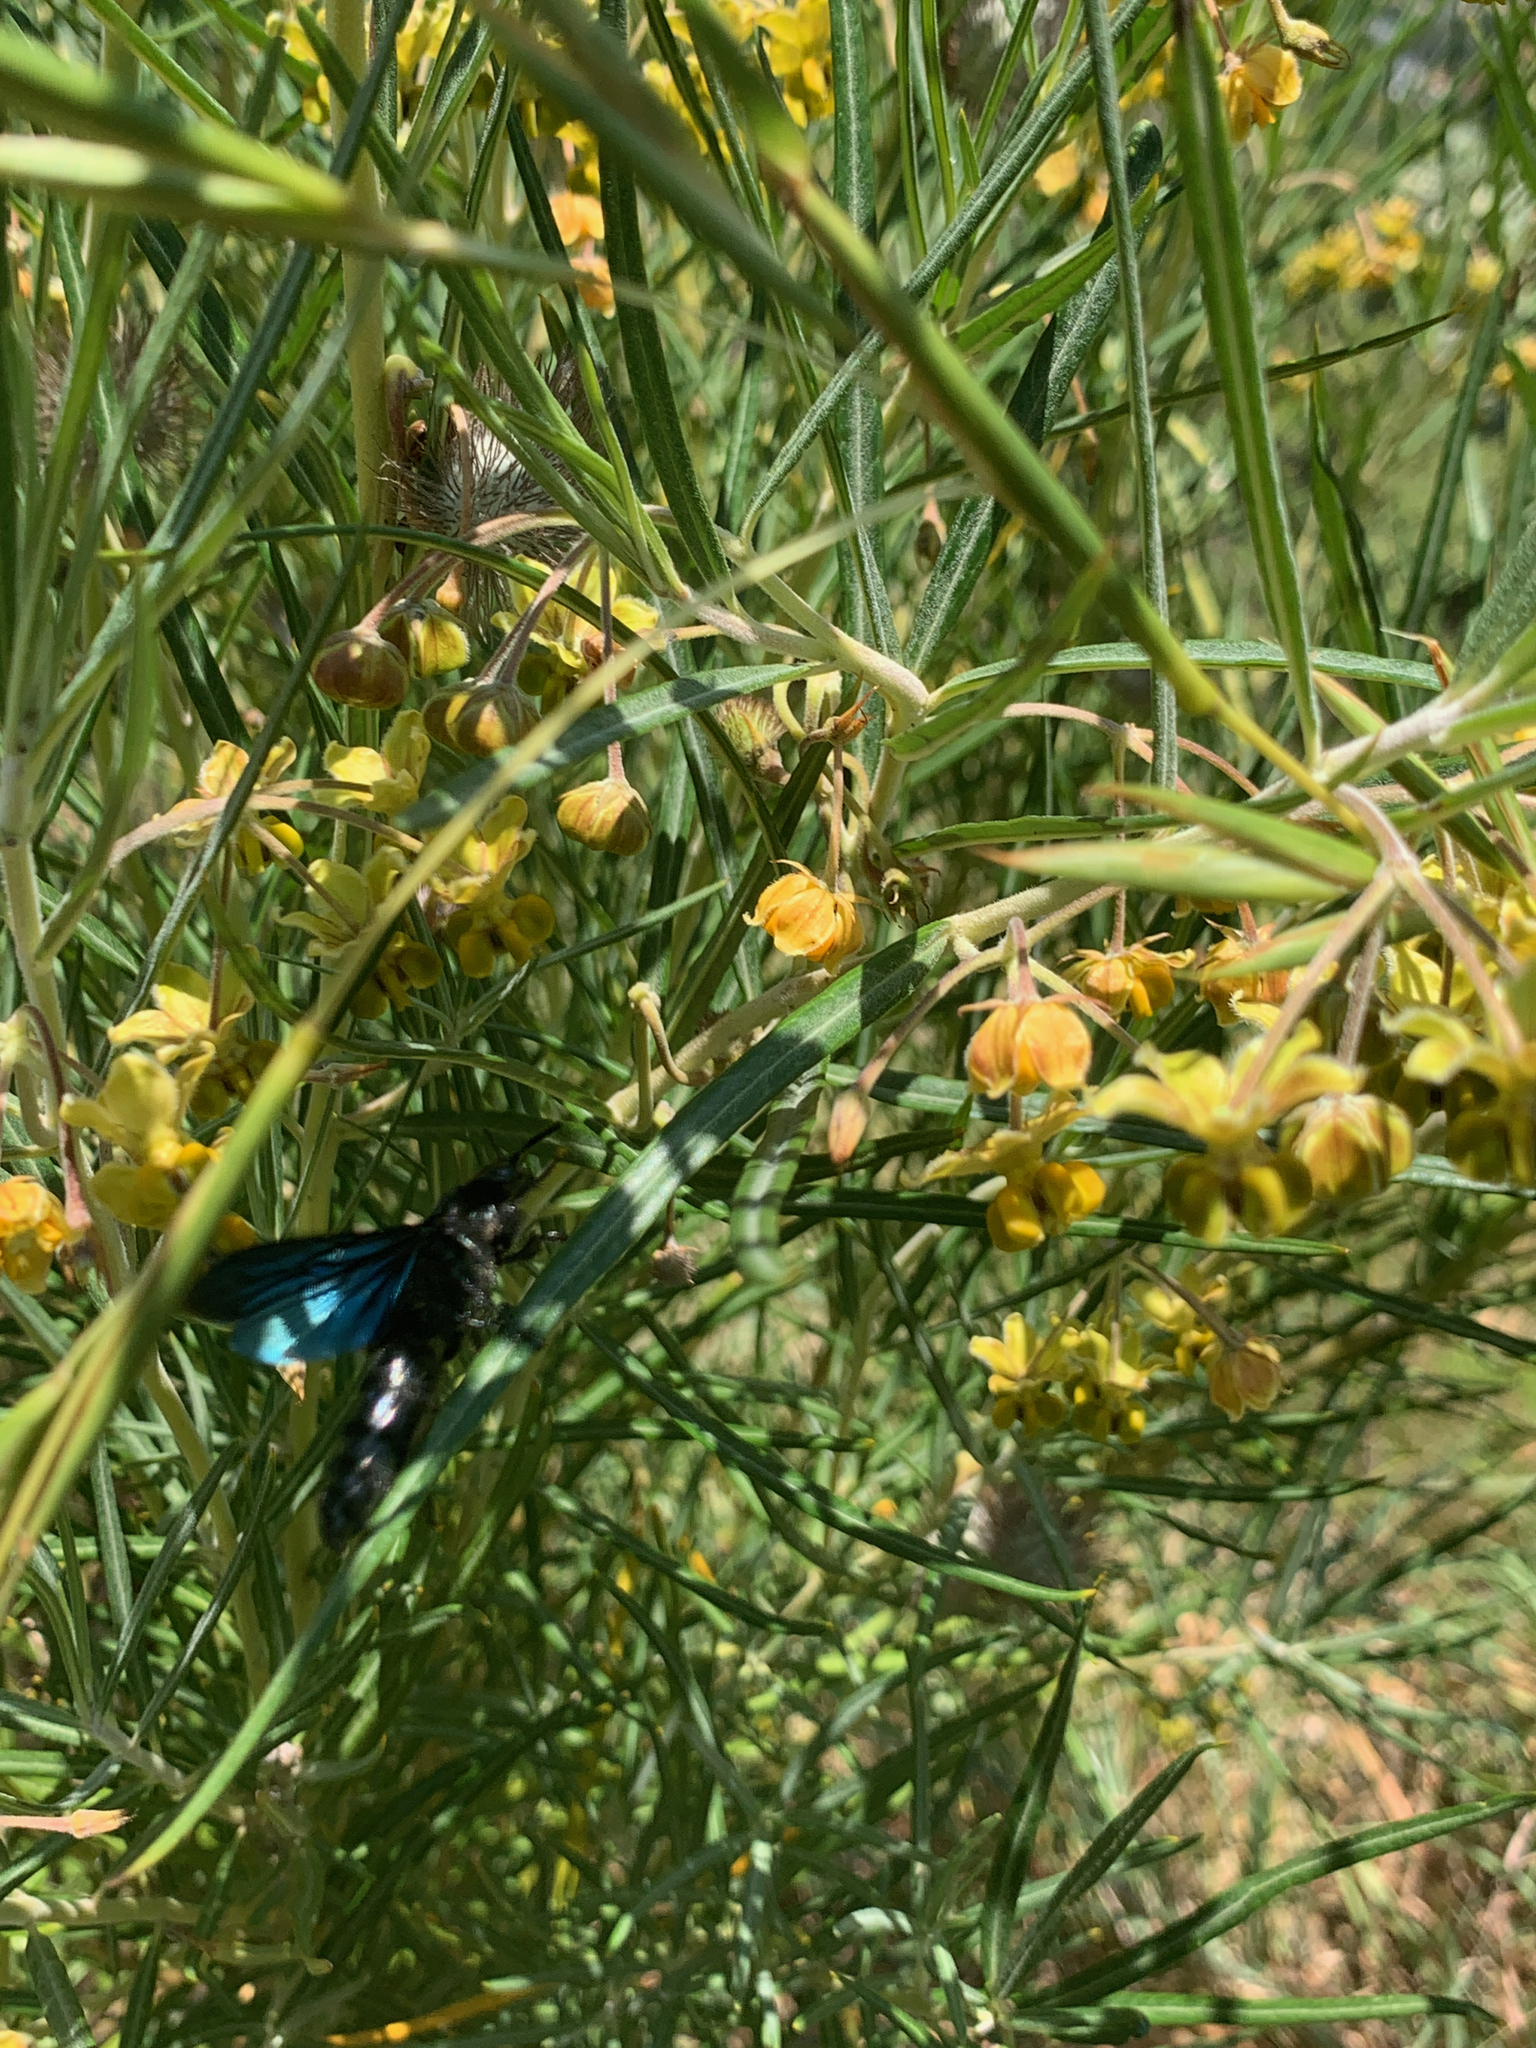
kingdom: Plantae
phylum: Tracheophyta
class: Magnoliopsida
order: Gentianales
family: Apocynaceae
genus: Gomphocarpus
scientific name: Gomphocarpus fruticosus
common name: Milkweed
